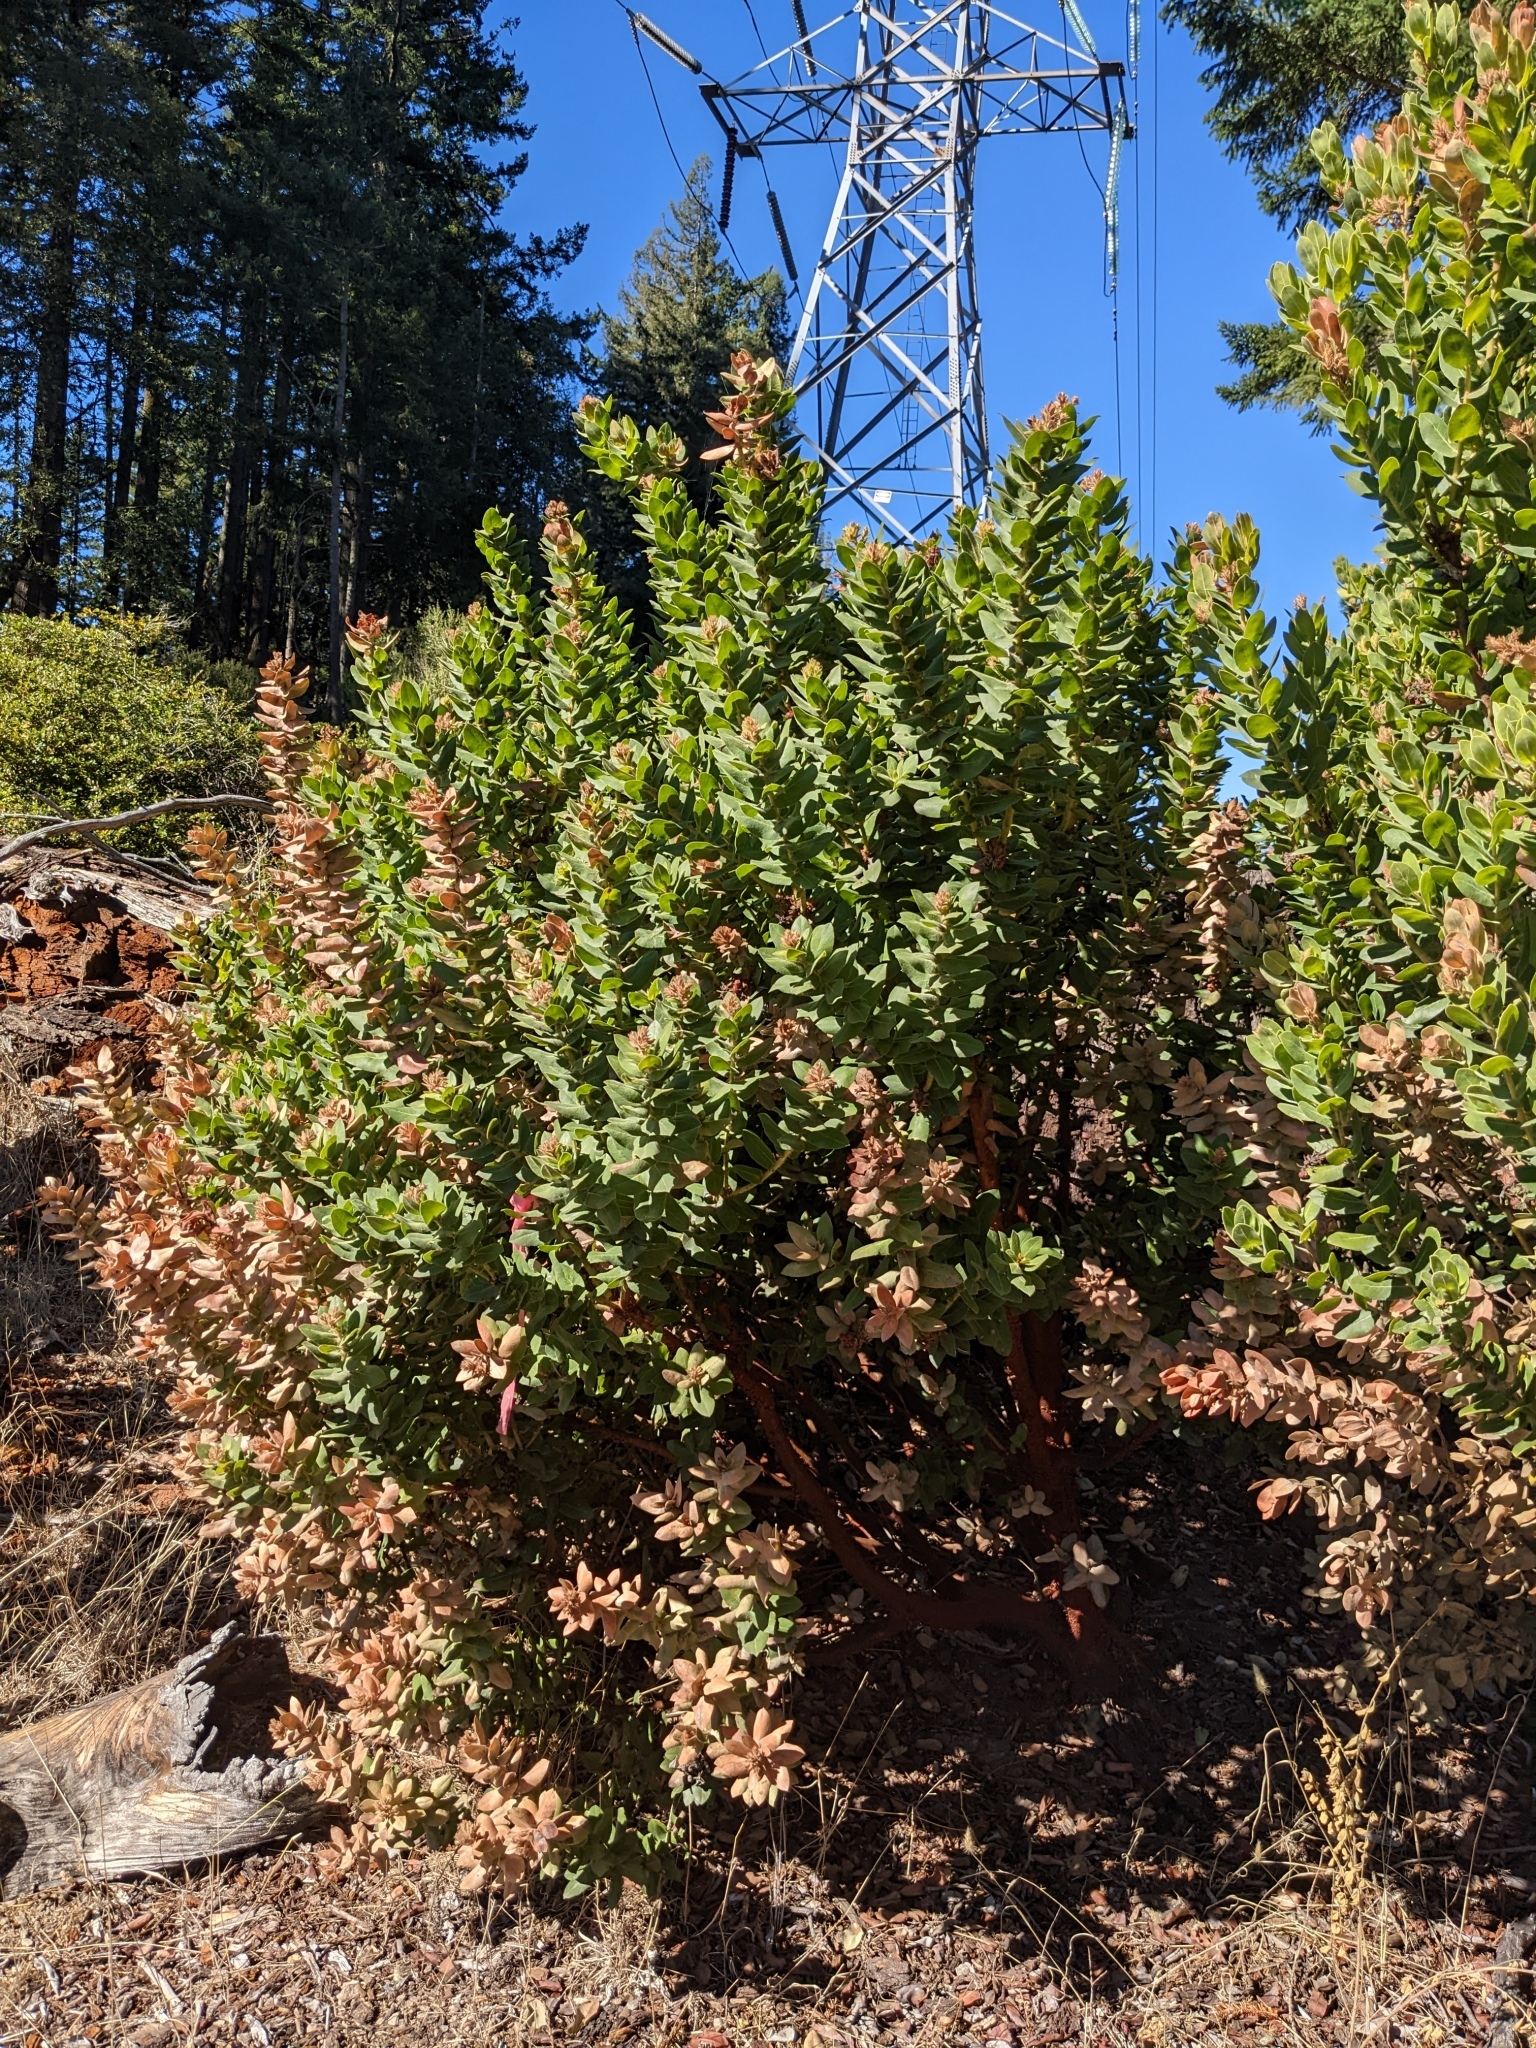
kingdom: Plantae
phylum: Tracheophyta
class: Magnoliopsida
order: Ericales
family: Ericaceae
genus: Arctostaphylos
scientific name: Arctostaphylos regismontana
